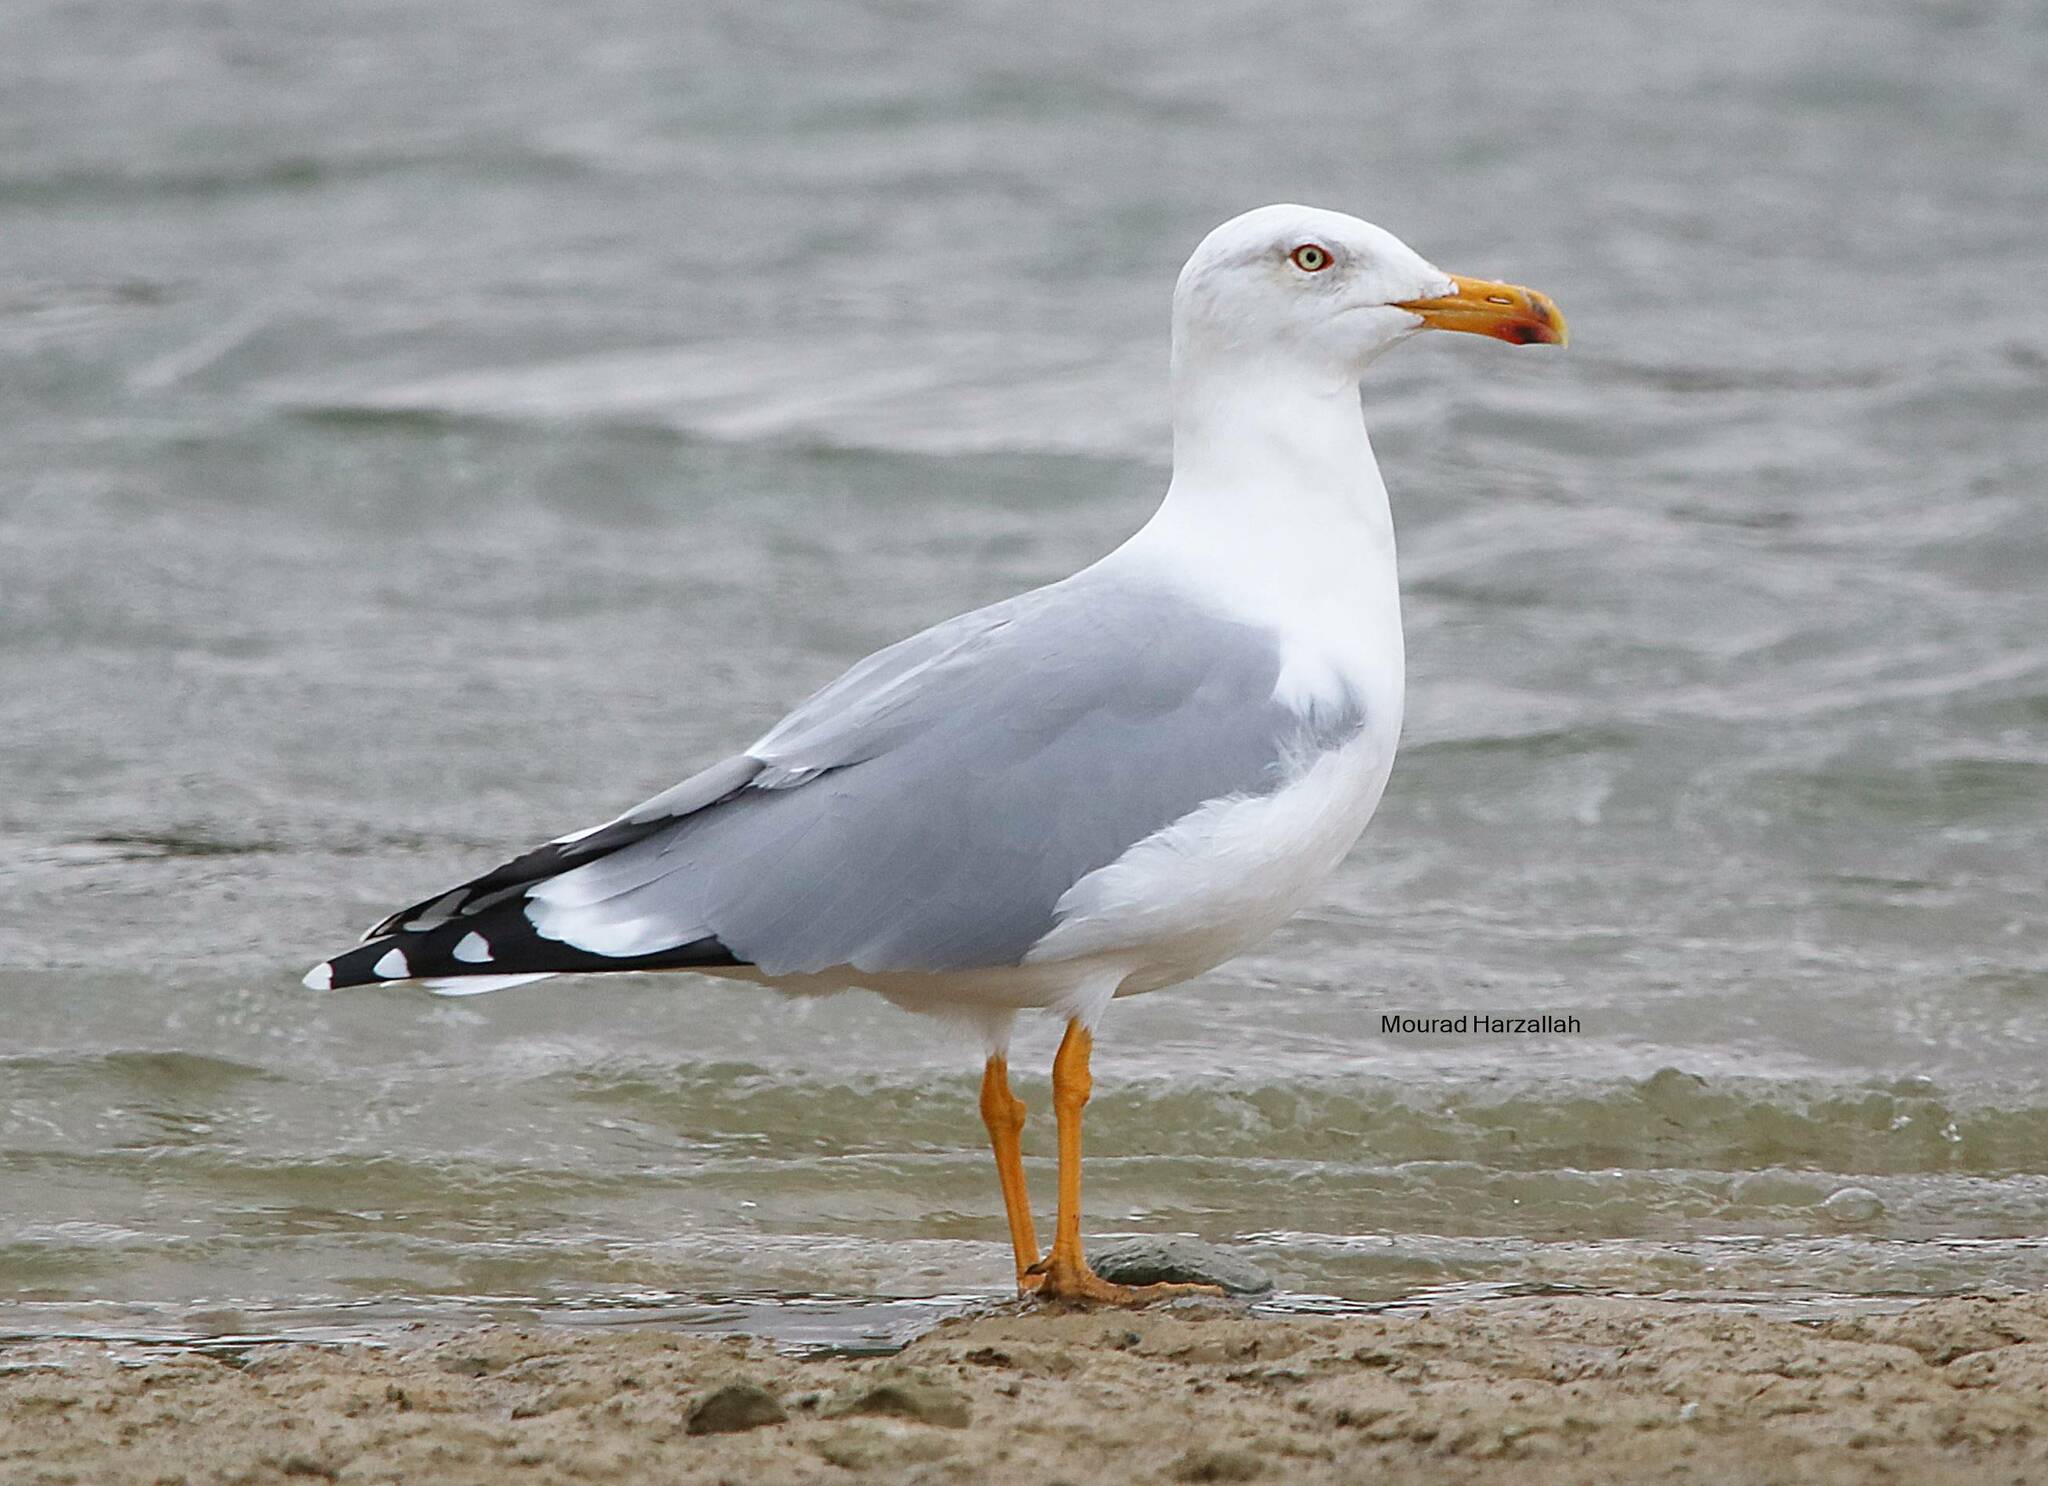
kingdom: Animalia
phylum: Chordata
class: Aves
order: Charadriiformes
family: Laridae
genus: Larus
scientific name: Larus michahellis
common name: Yellow-legged gull
